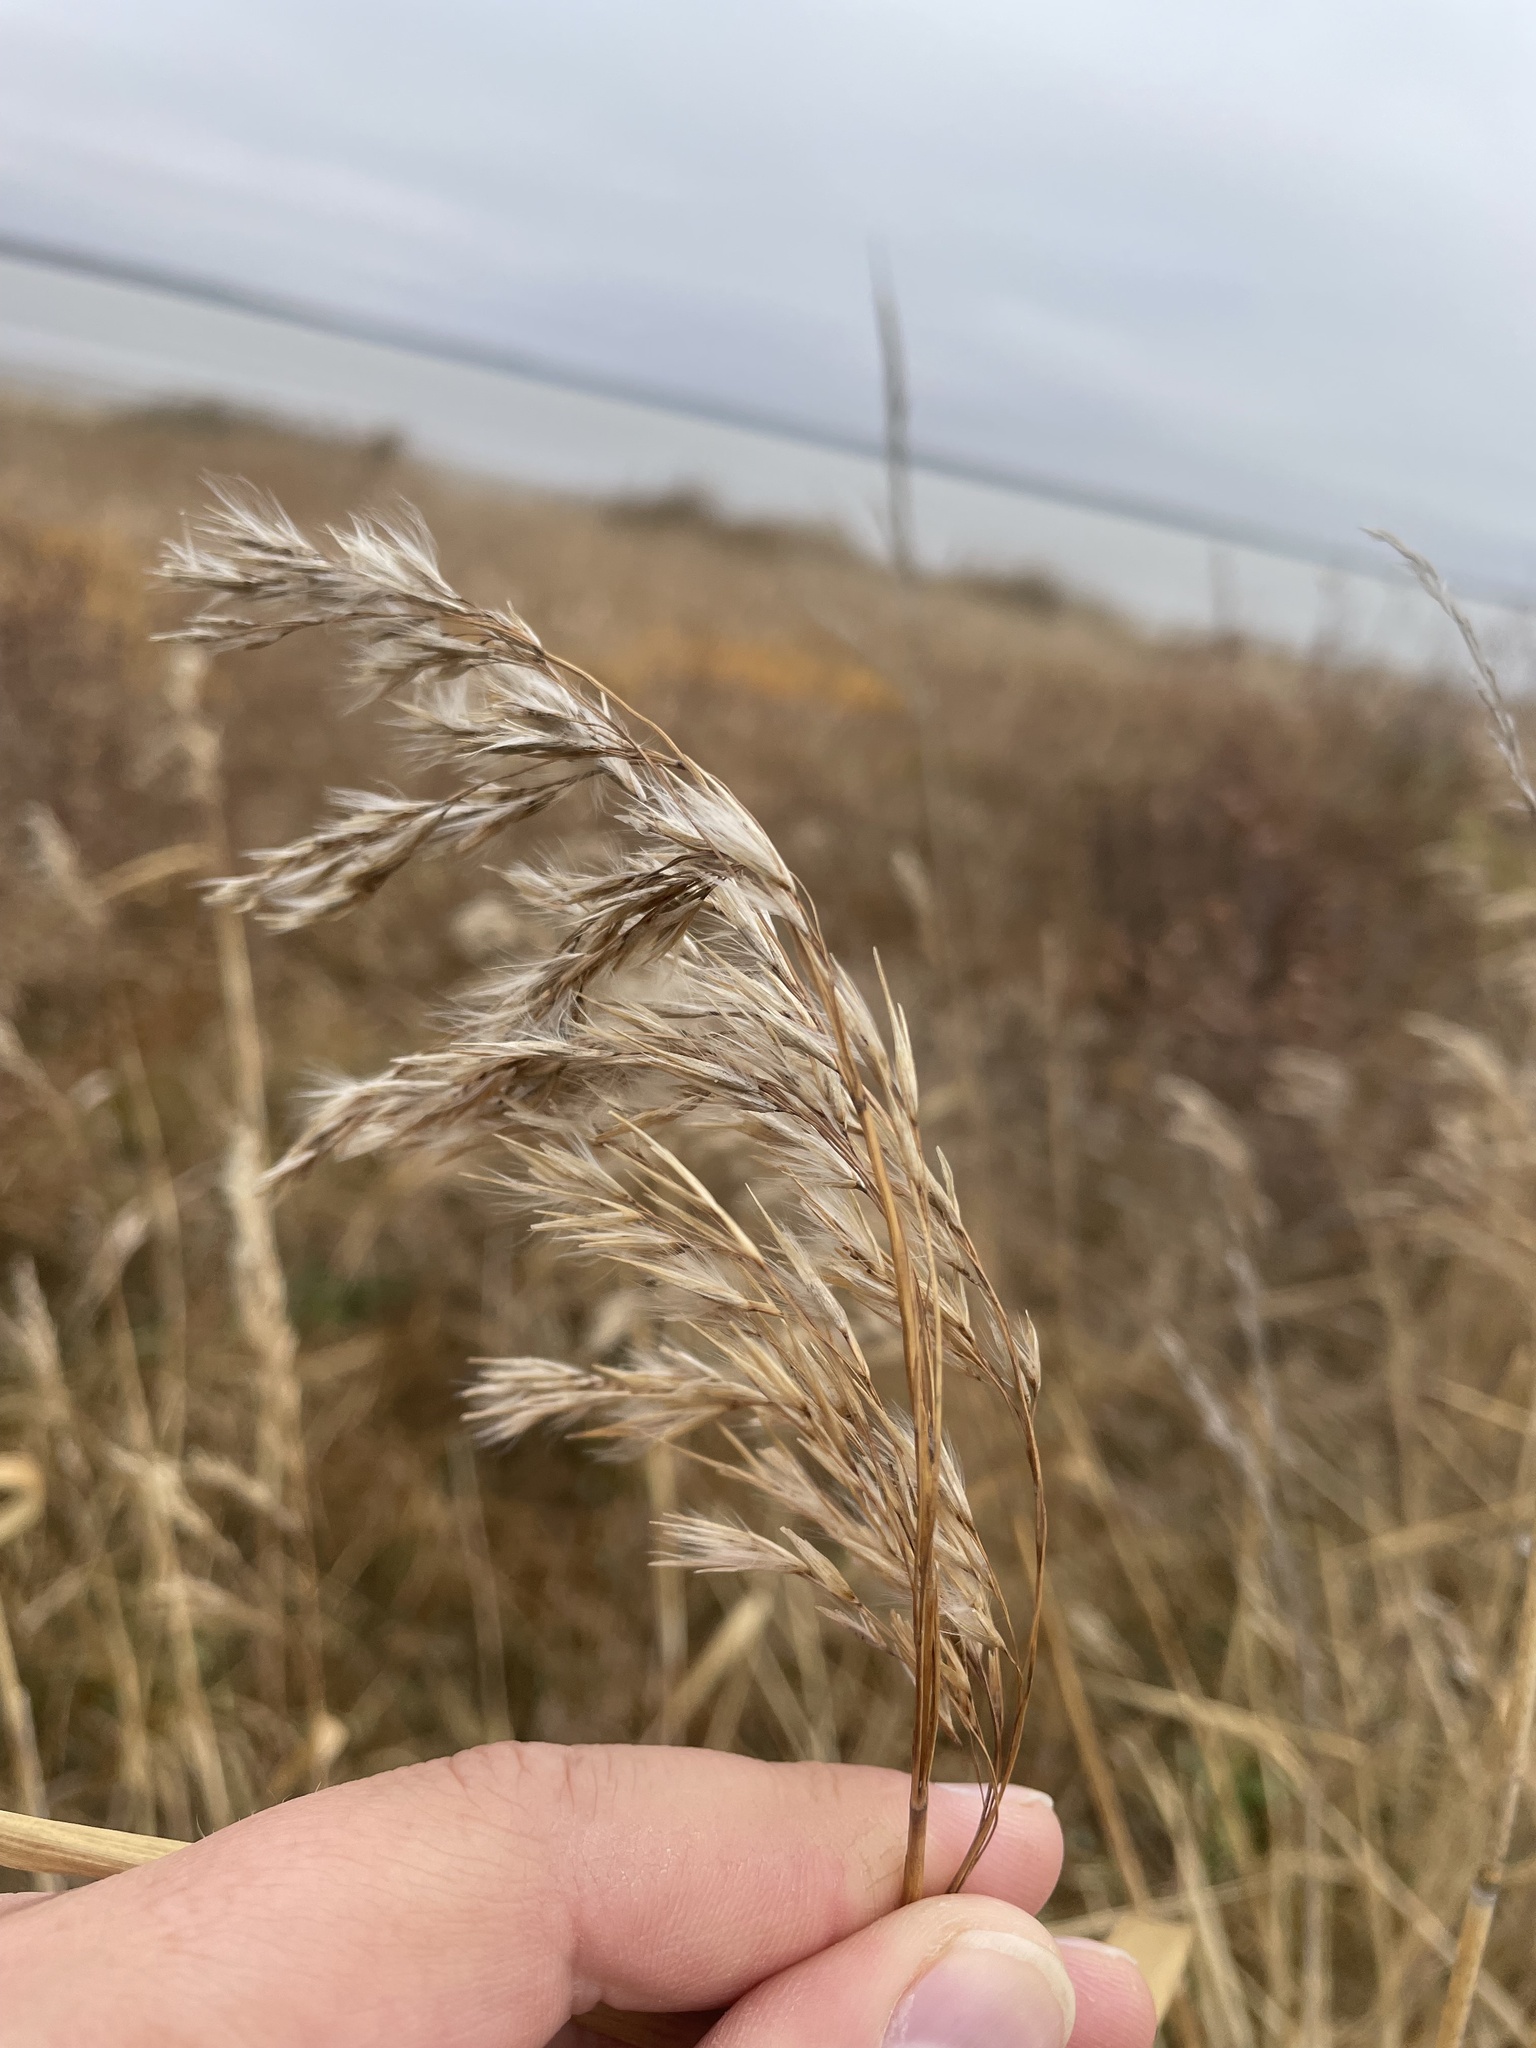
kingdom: Plantae
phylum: Tracheophyta
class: Liliopsida
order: Poales
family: Poaceae
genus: Phragmites
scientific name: Phragmites australis
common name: Common reed
